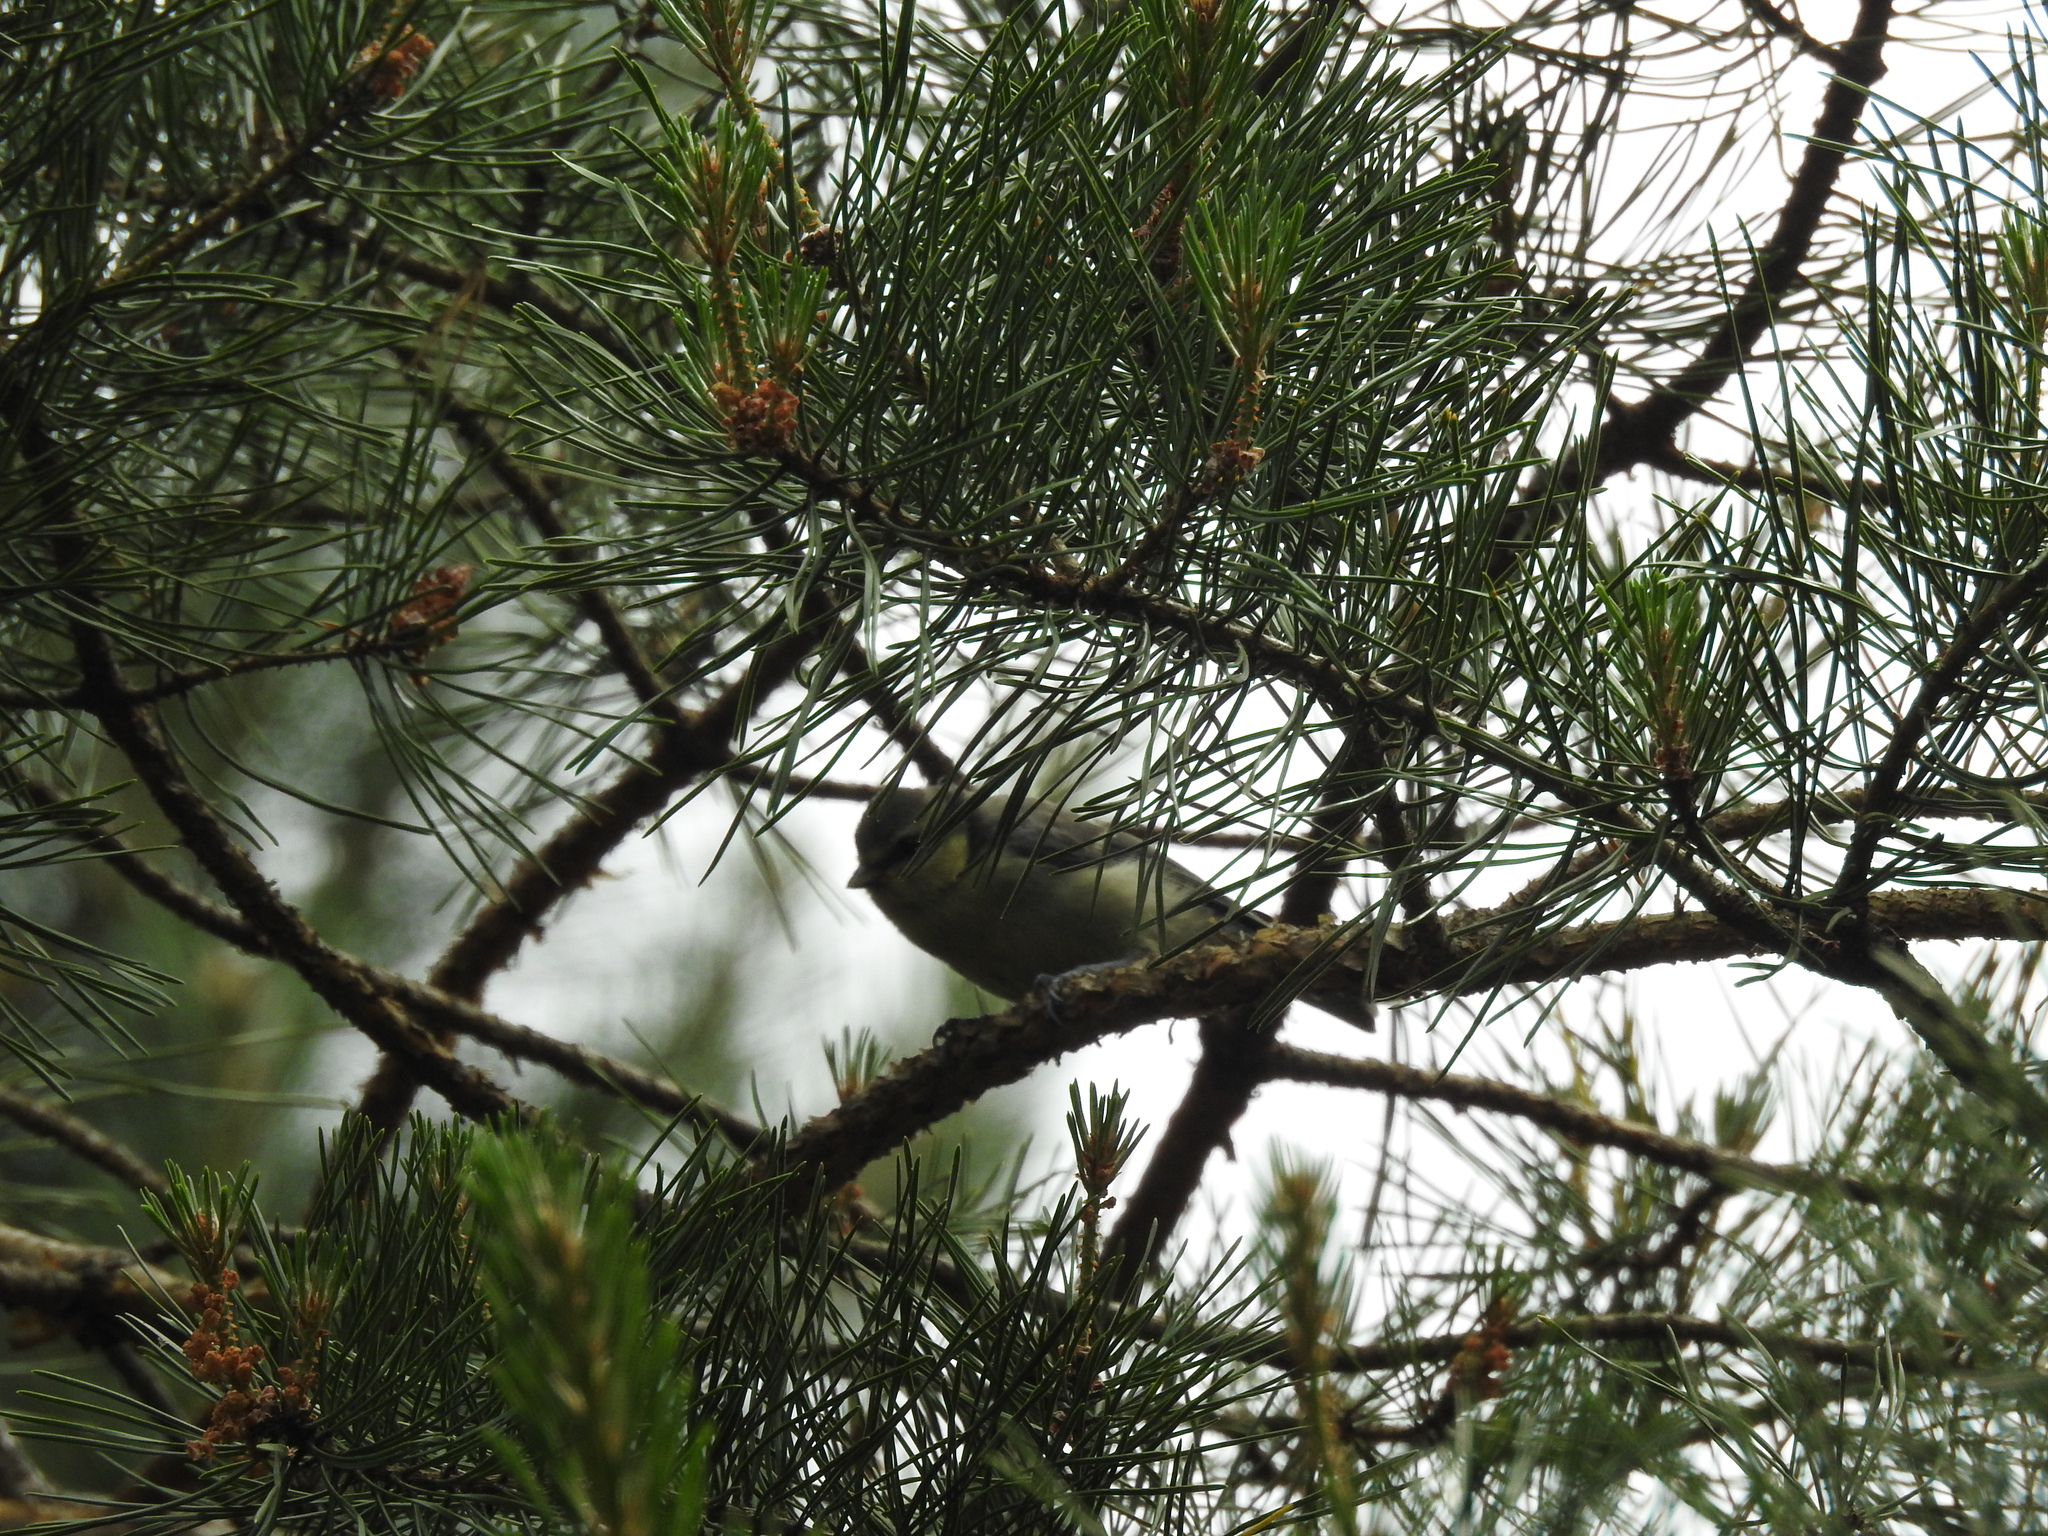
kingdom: Animalia
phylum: Chordata
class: Aves
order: Passeriformes
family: Paridae
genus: Cyanistes
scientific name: Cyanistes caeruleus
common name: Eurasian blue tit
